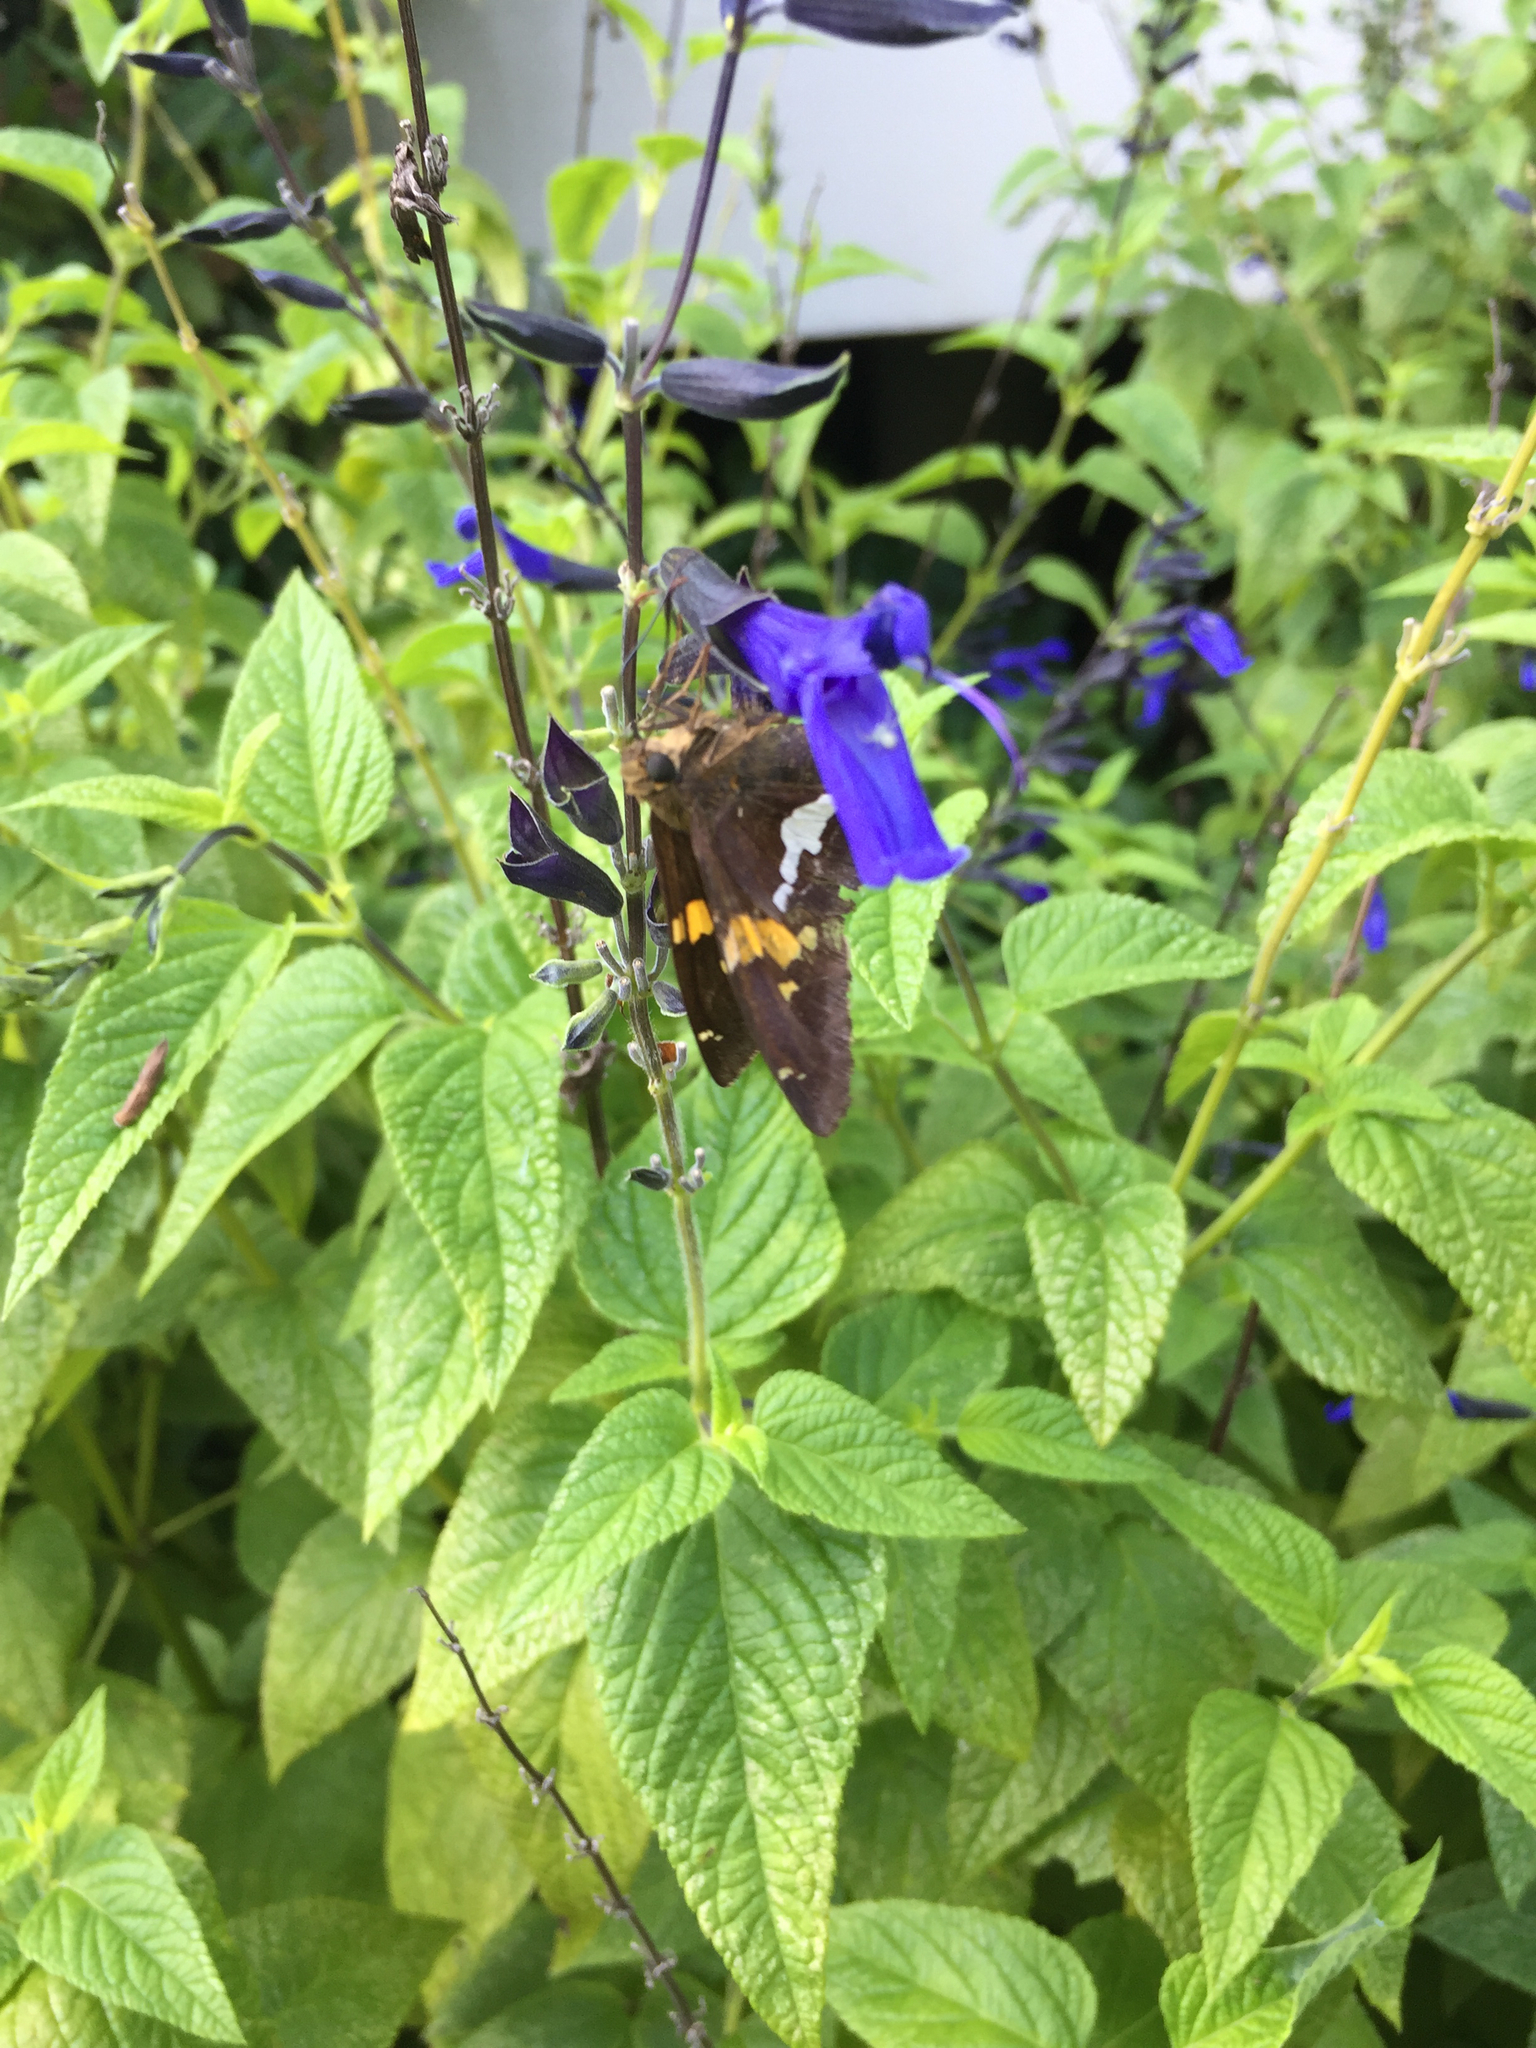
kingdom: Animalia
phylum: Arthropoda
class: Insecta
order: Lepidoptera
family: Hesperiidae
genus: Epargyreus
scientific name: Epargyreus clarus
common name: Silver-spotted skipper
